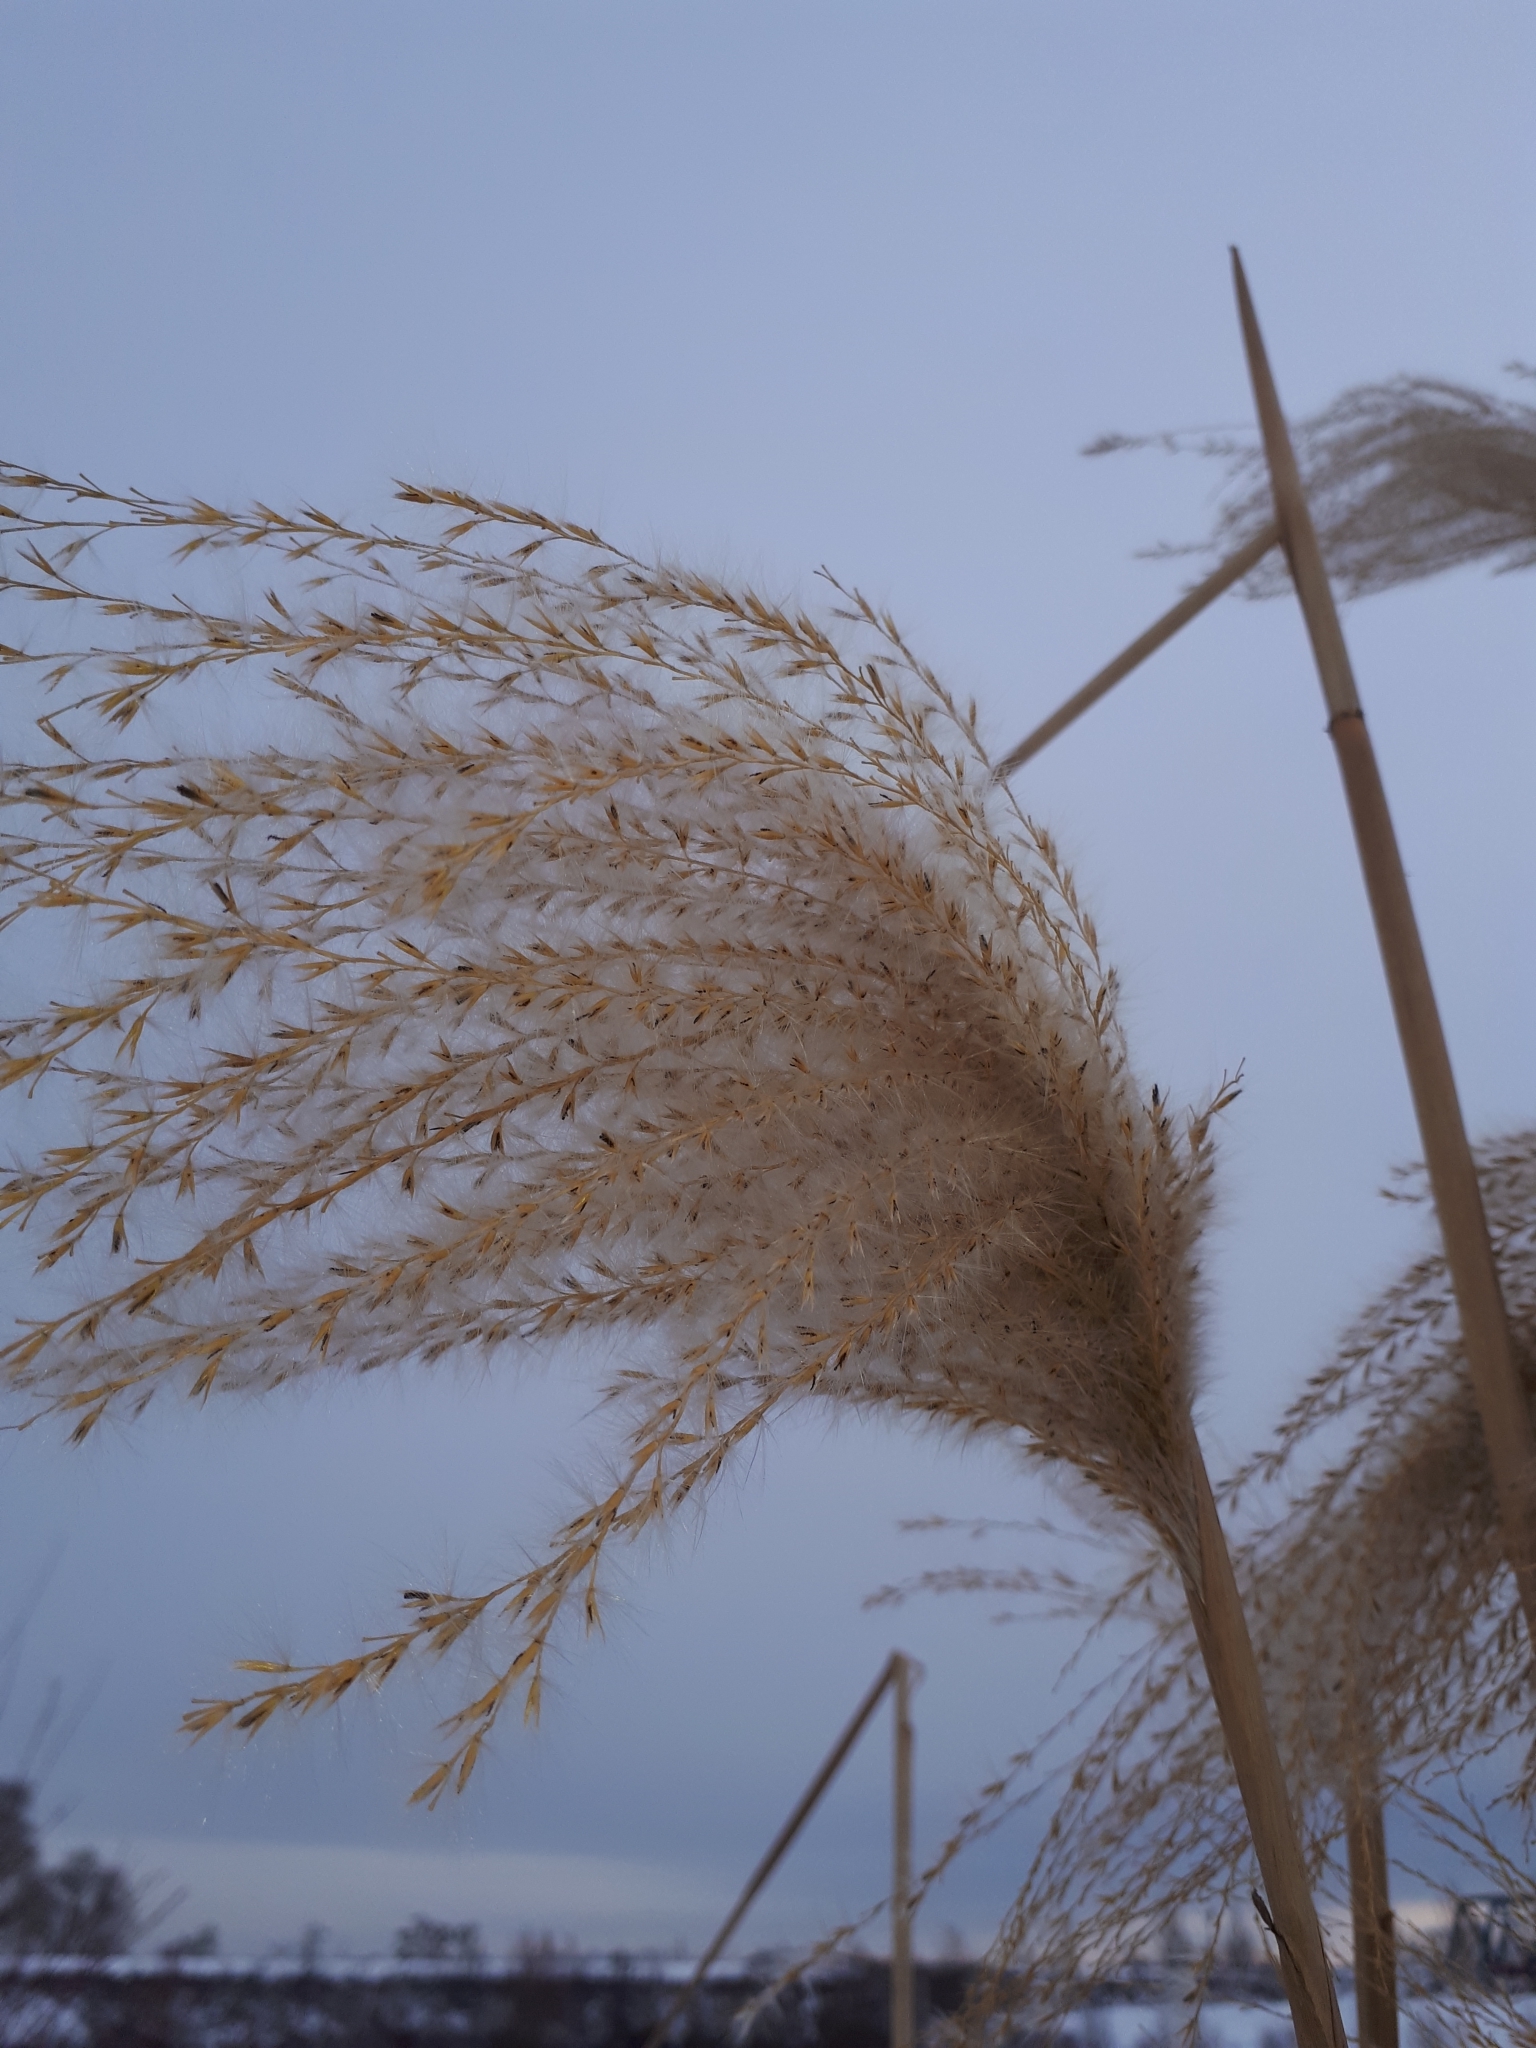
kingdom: Plantae
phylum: Tracheophyta
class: Liliopsida
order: Poales
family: Poaceae
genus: Miscanthus
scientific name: Miscanthus longiberbis
